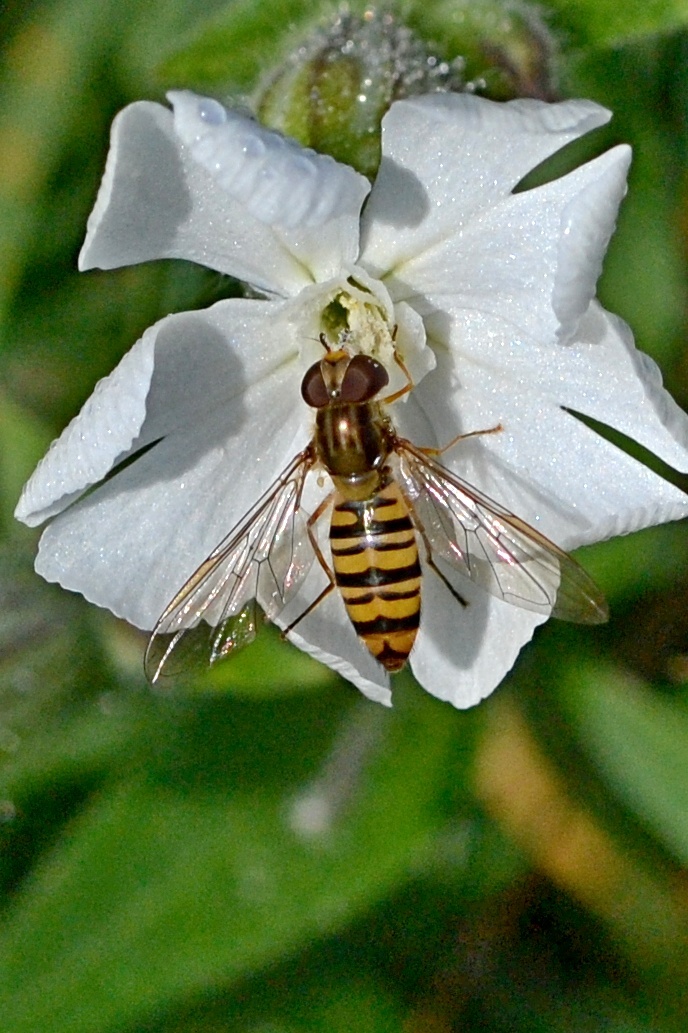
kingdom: Animalia
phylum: Arthropoda
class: Insecta
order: Diptera
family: Syrphidae
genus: Episyrphus
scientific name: Episyrphus balteatus
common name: Marmalade hoverfly
